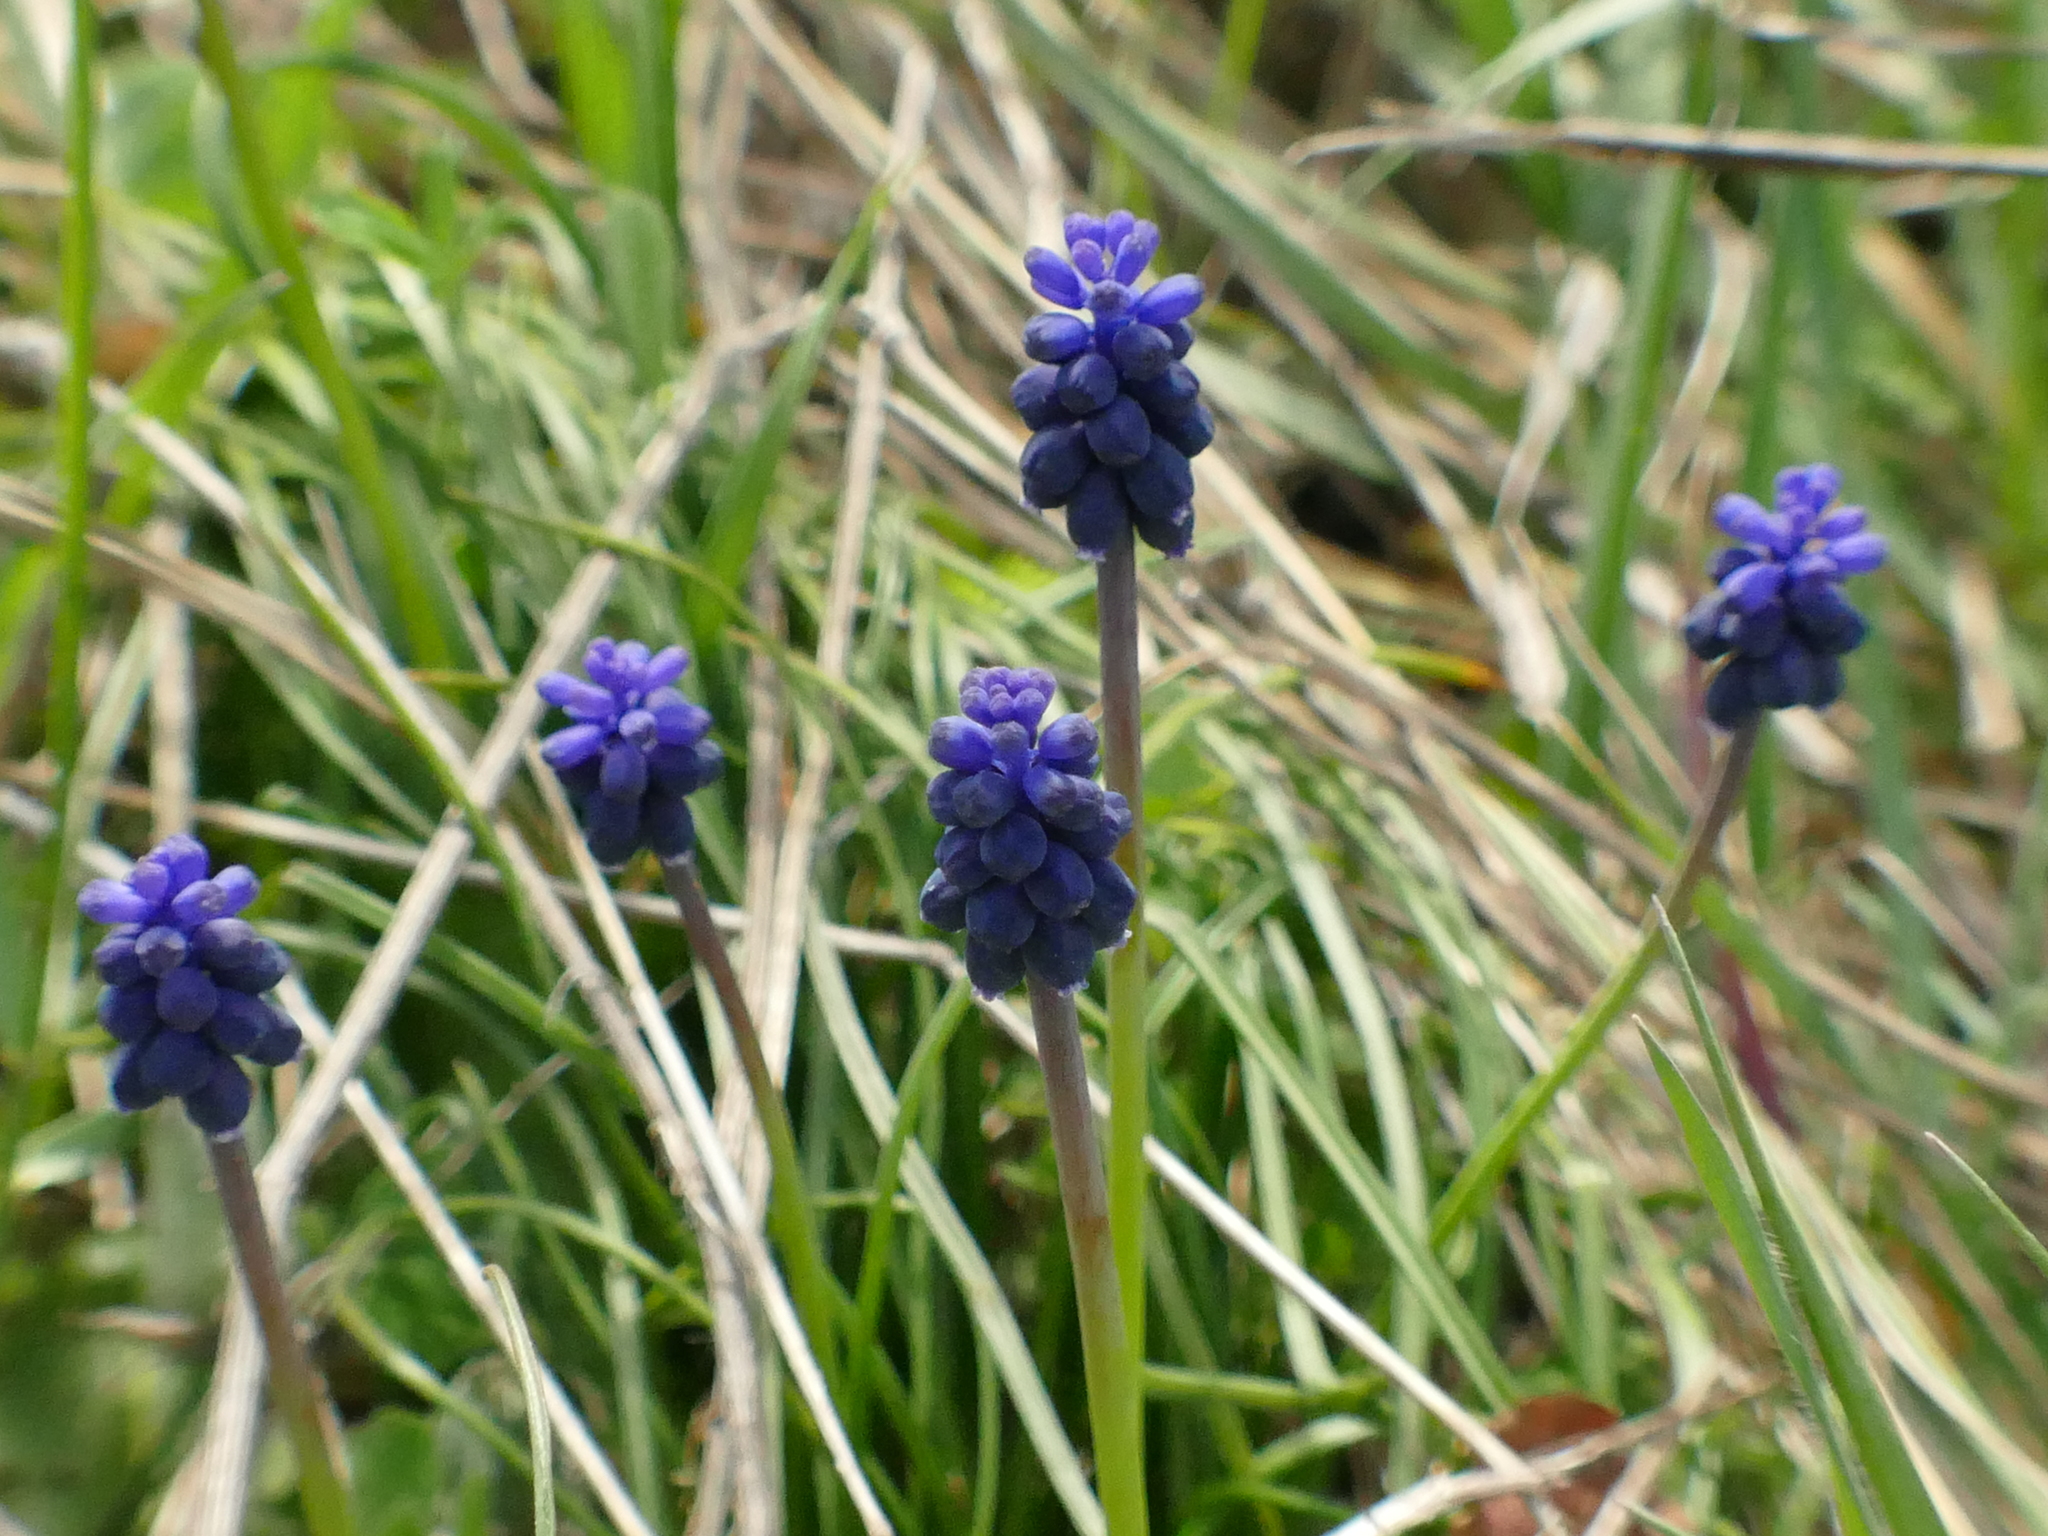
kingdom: Plantae
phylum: Tracheophyta
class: Liliopsida
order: Asparagales
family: Asparagaceae
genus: Muscari
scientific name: Muscari neglectum
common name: Grape-hyacinth
